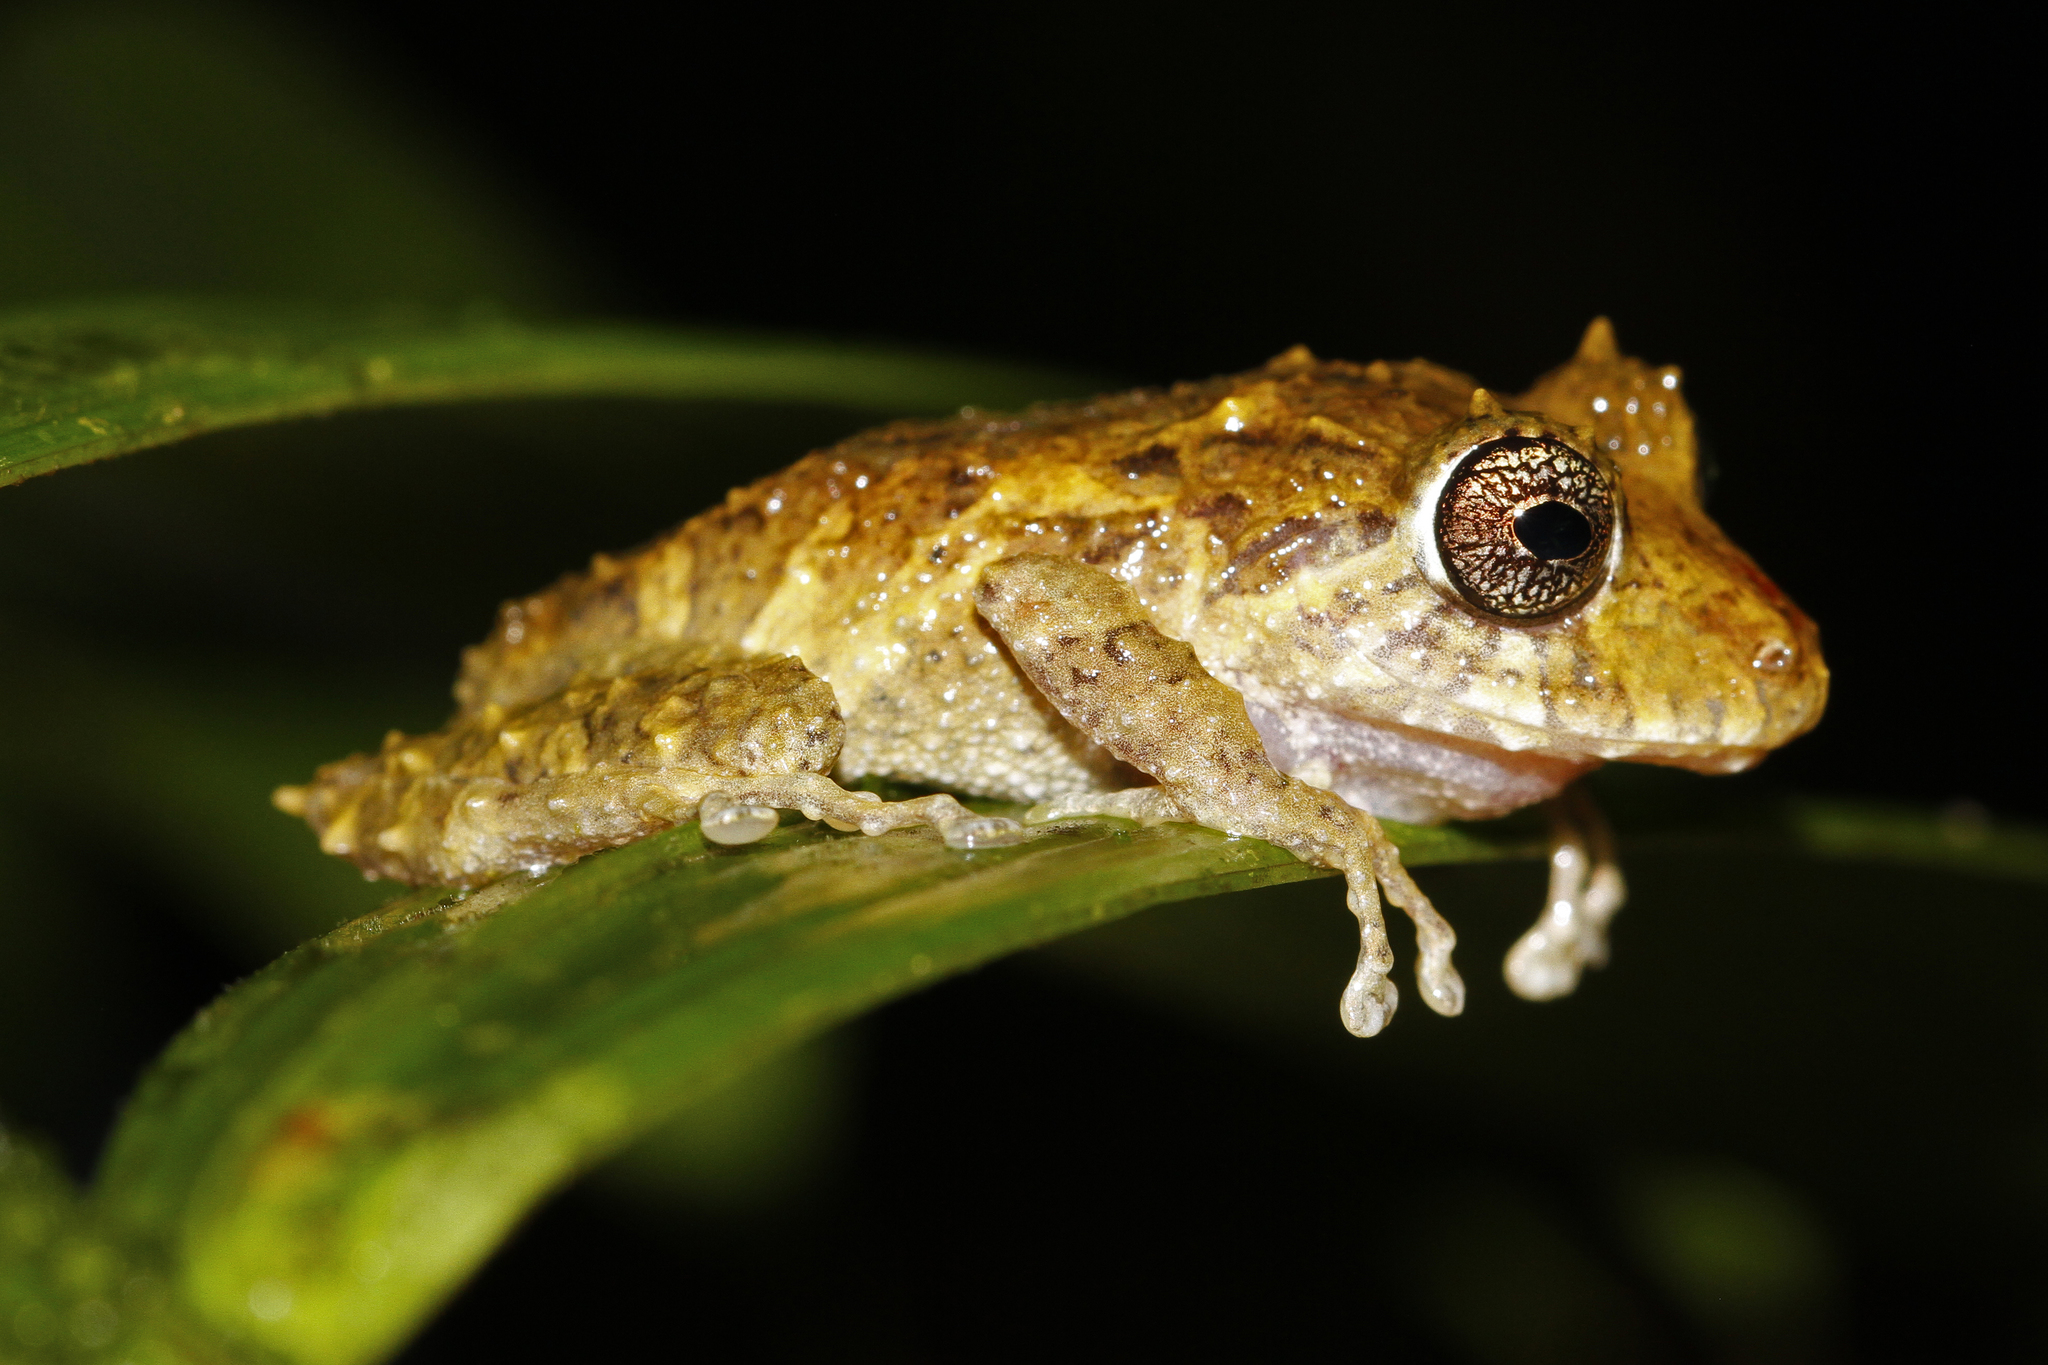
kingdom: Animalia
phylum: Chordata
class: Amphibia
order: Anura
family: Craugastoridae
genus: Pristimantis
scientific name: Pristimantis cruentus
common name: Chiriqui robber frog
